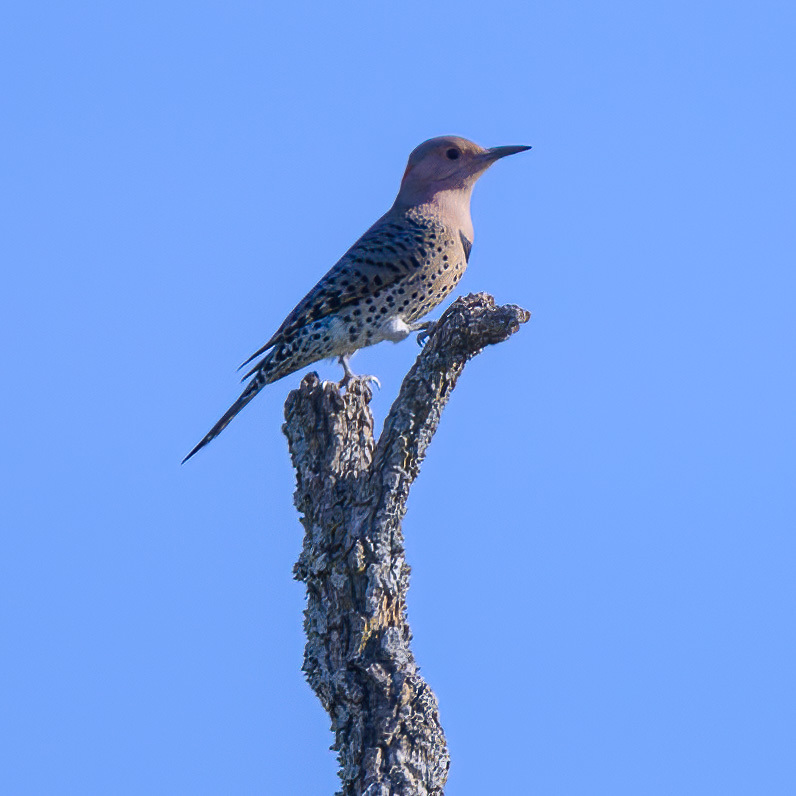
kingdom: Animalia
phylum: Chordata
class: Aves
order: Piciformes
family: Picidae
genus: Colaptes
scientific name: Colaptes auratus
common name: Northern flicker
